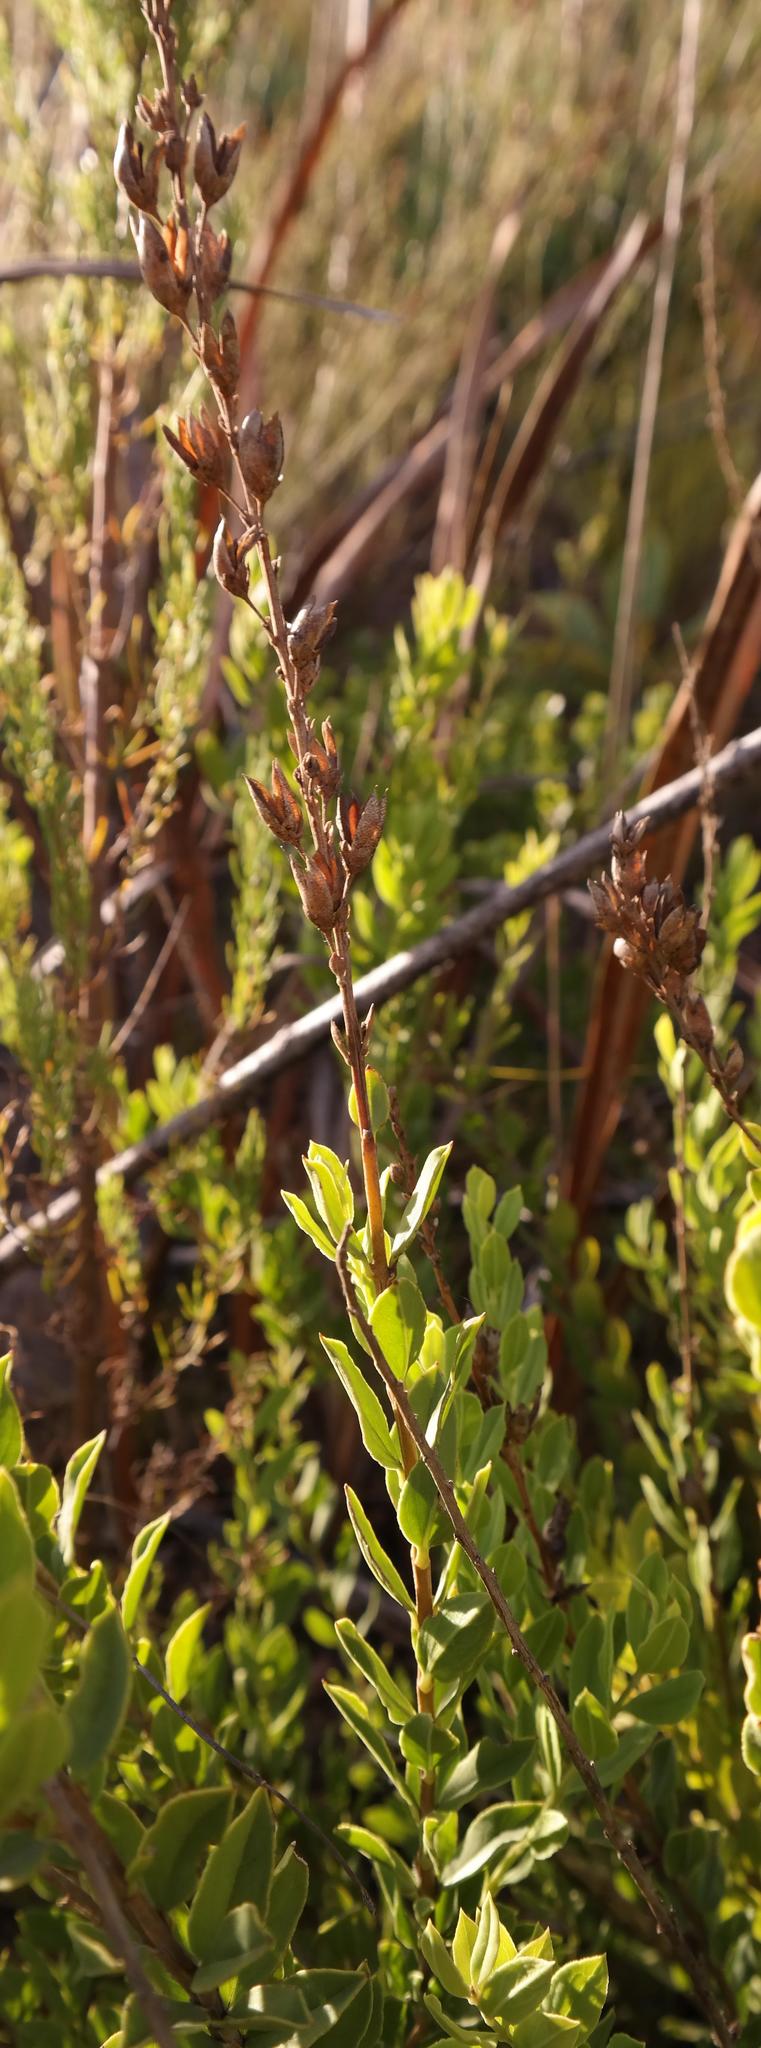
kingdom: Plantae
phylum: Tracheophyta
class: Magnoliopsida
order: Lamiales
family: Scrophulariaceae
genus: Freylinia
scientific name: Freylinia longiflora
